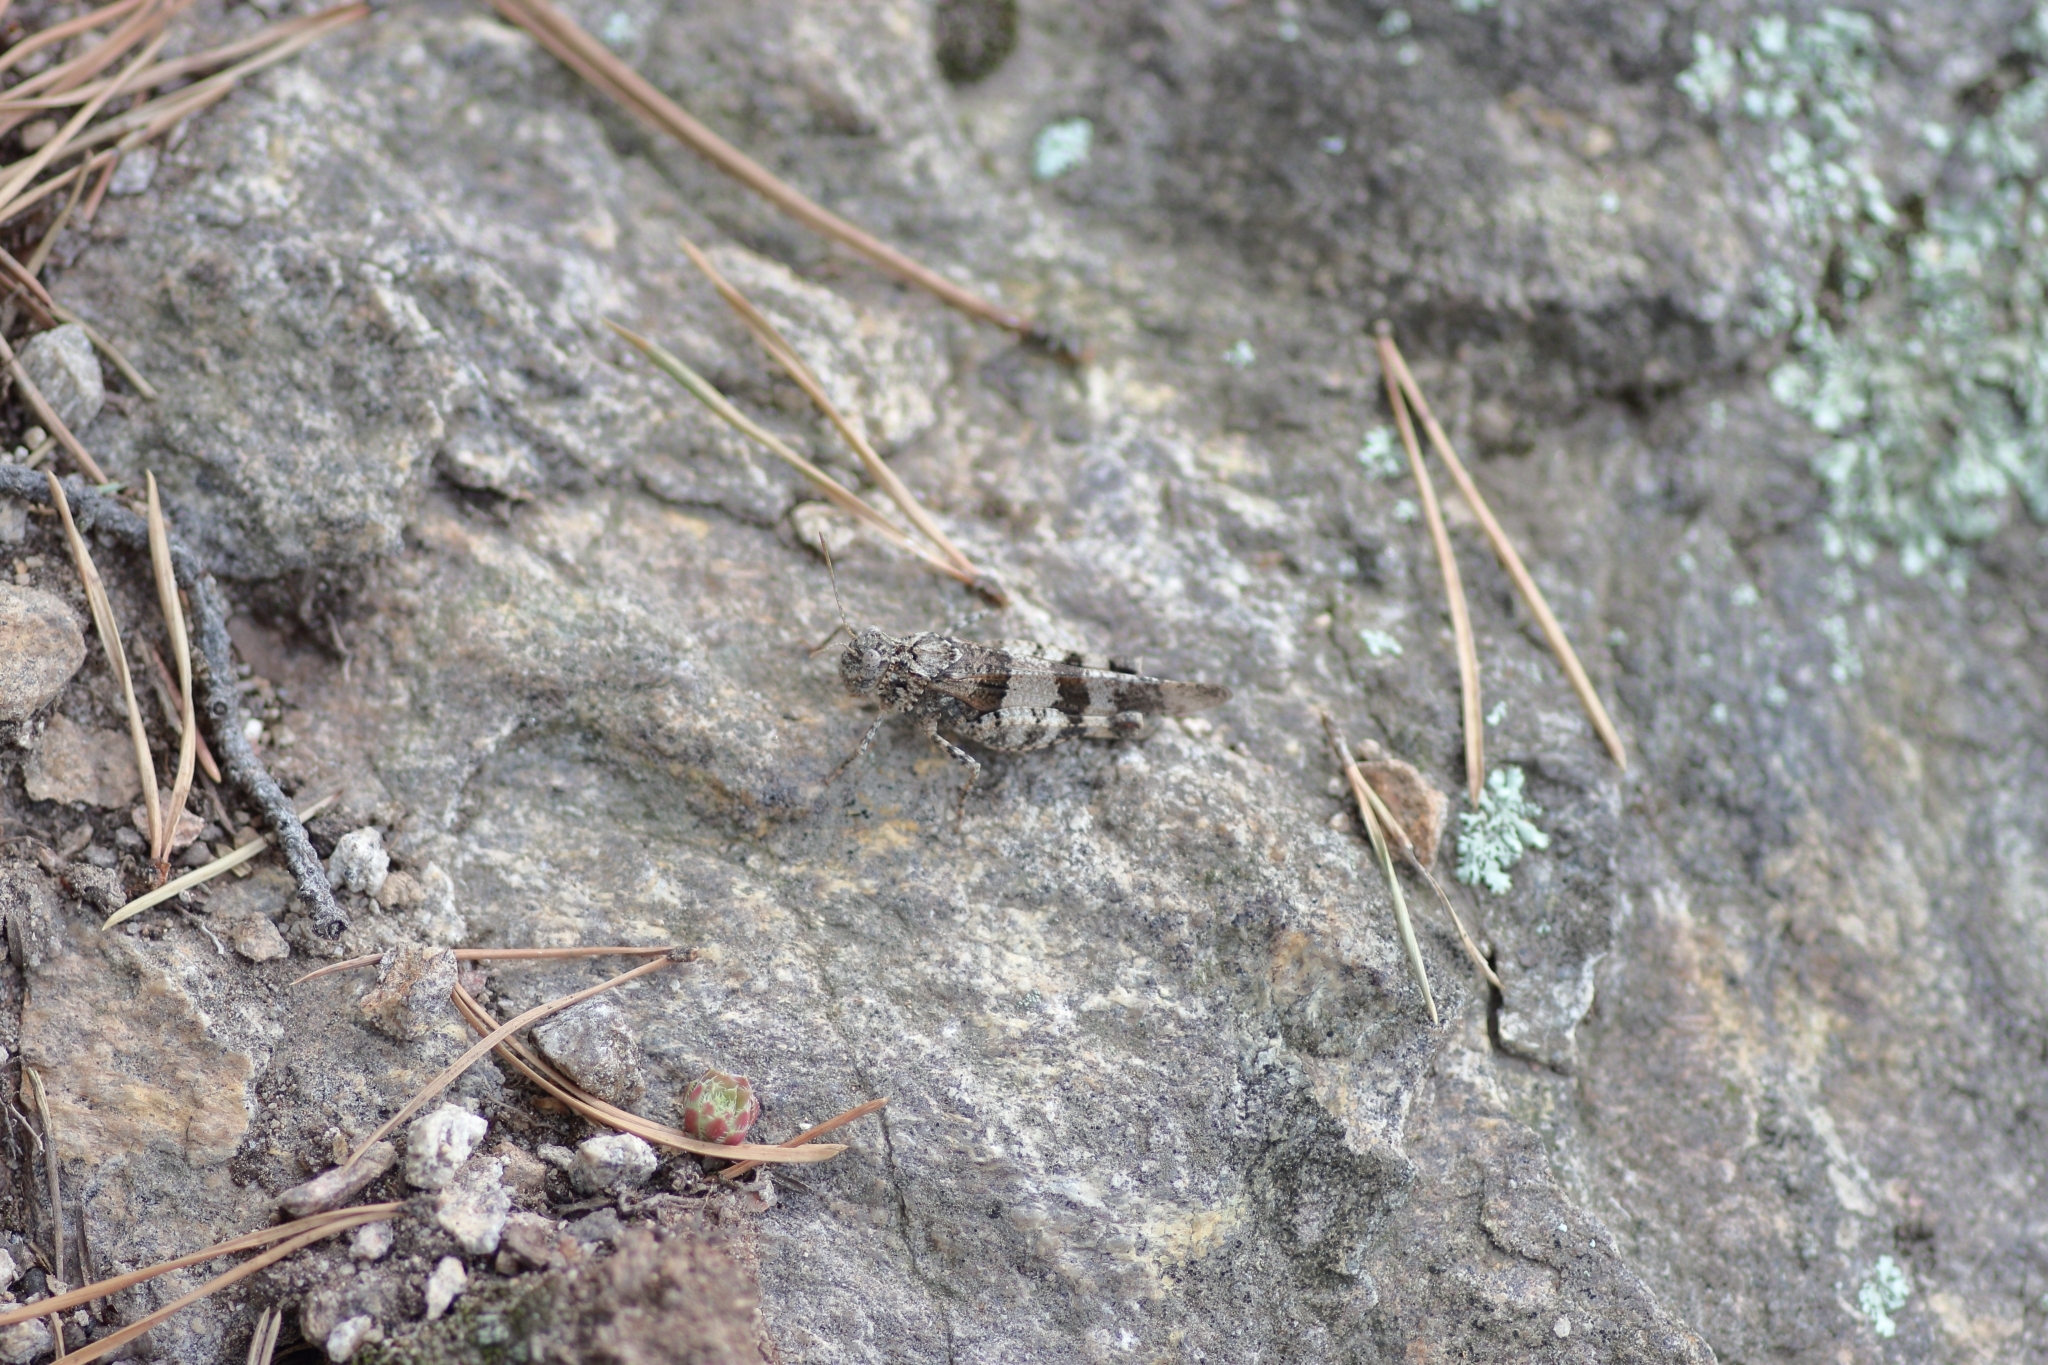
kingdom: Animalia
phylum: Arthropoda
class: Insecta
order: Orthoptera
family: Acrididae
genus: Oedipoda
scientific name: Oedipoda caerulescens
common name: Blue-winged grasshopper
